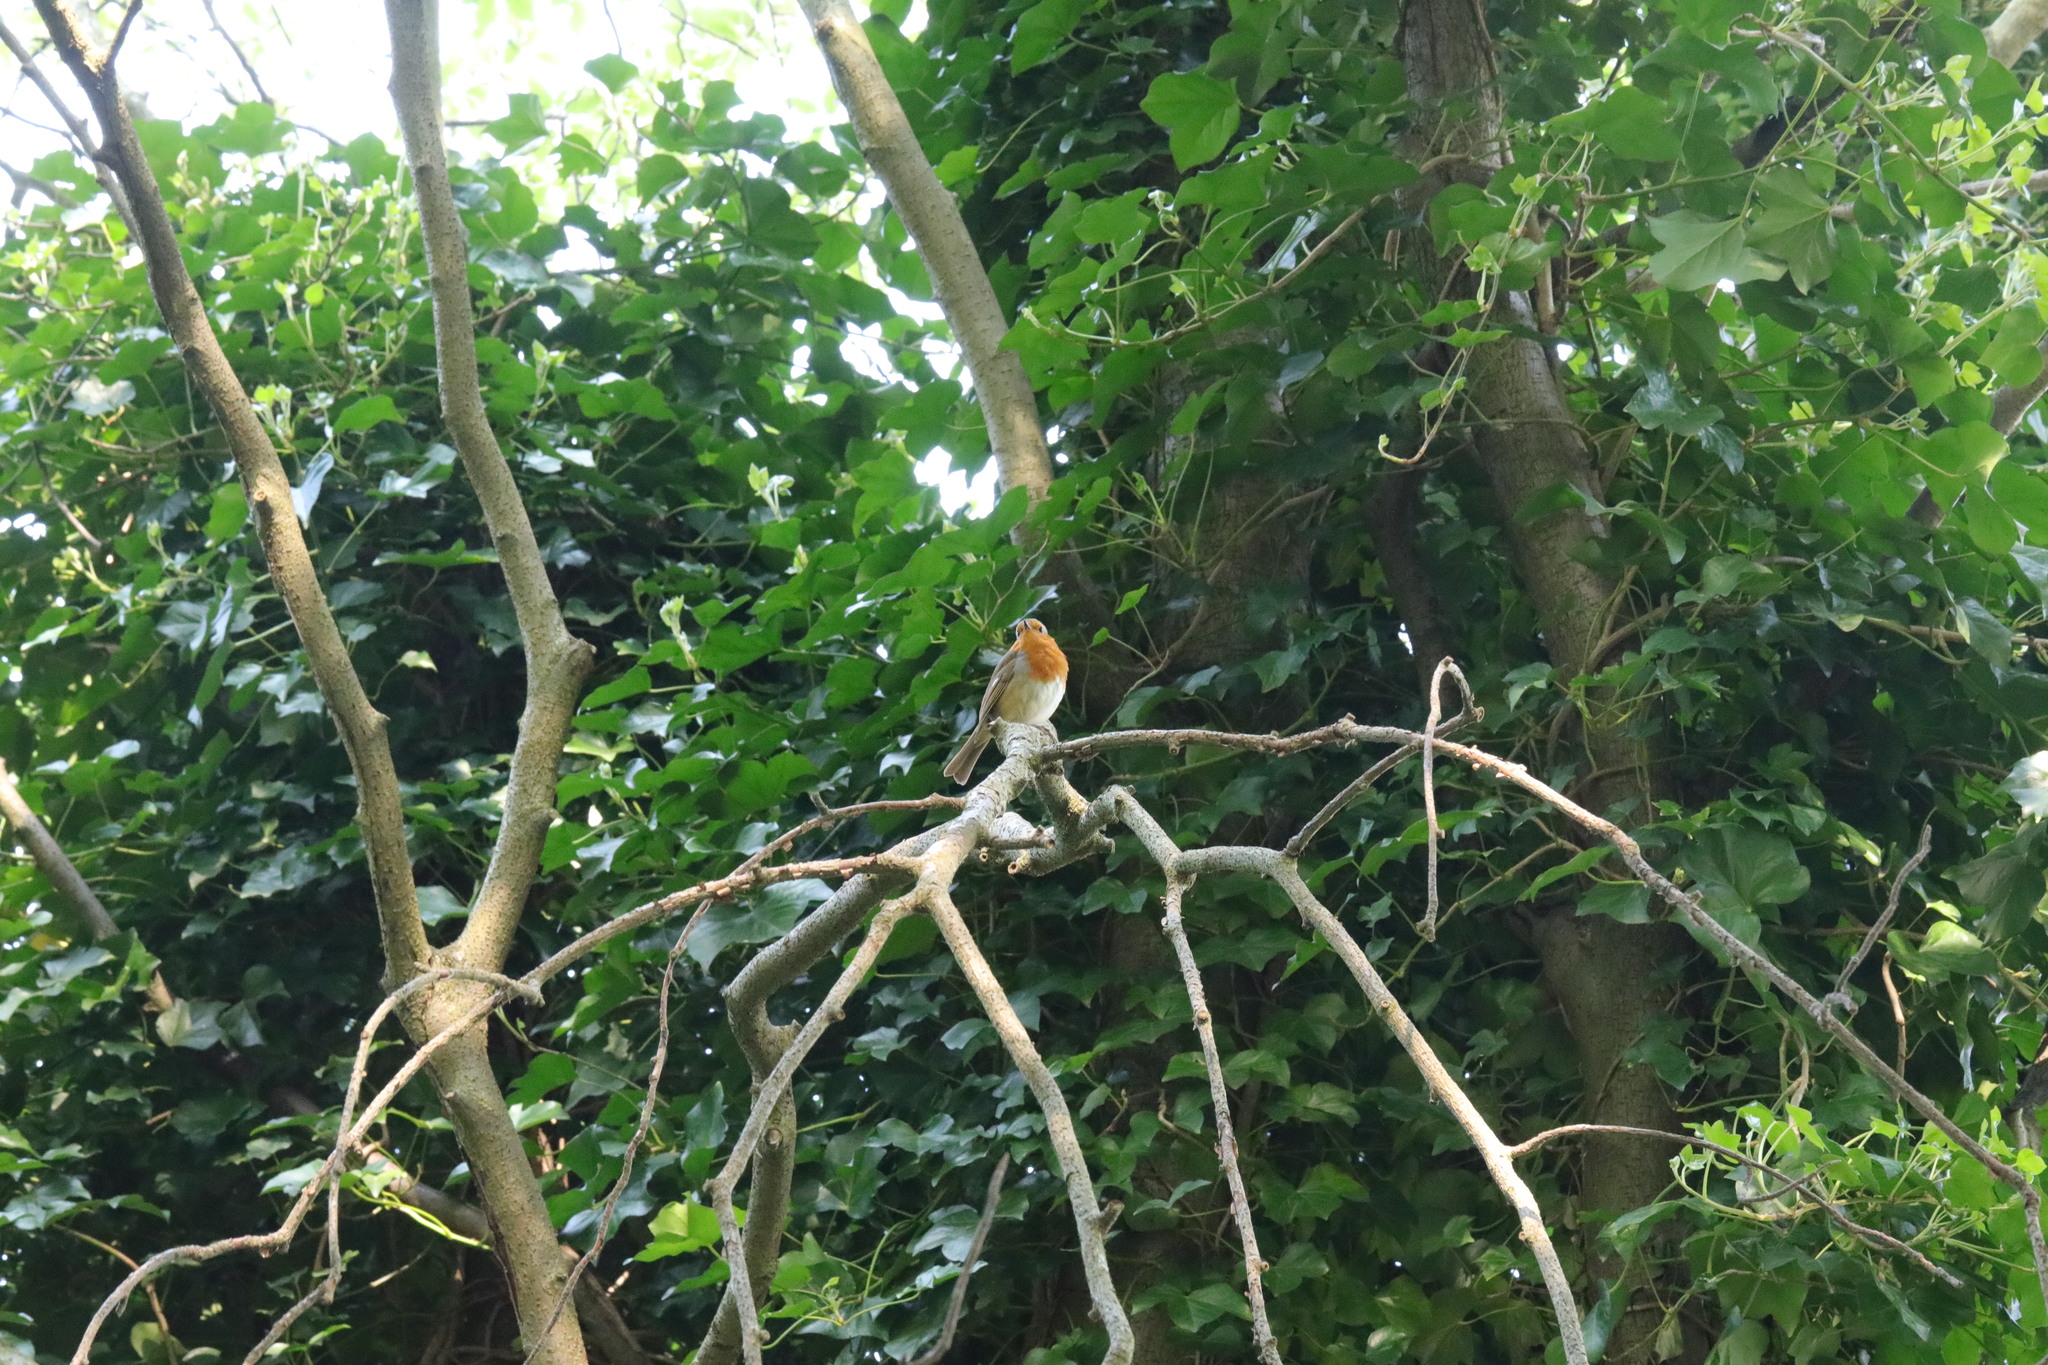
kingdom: Animalia
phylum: Chordata
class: Aves
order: Passeriformes
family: Muscicapidae
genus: Erithacus
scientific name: Erithacus rubecula
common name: European robin
